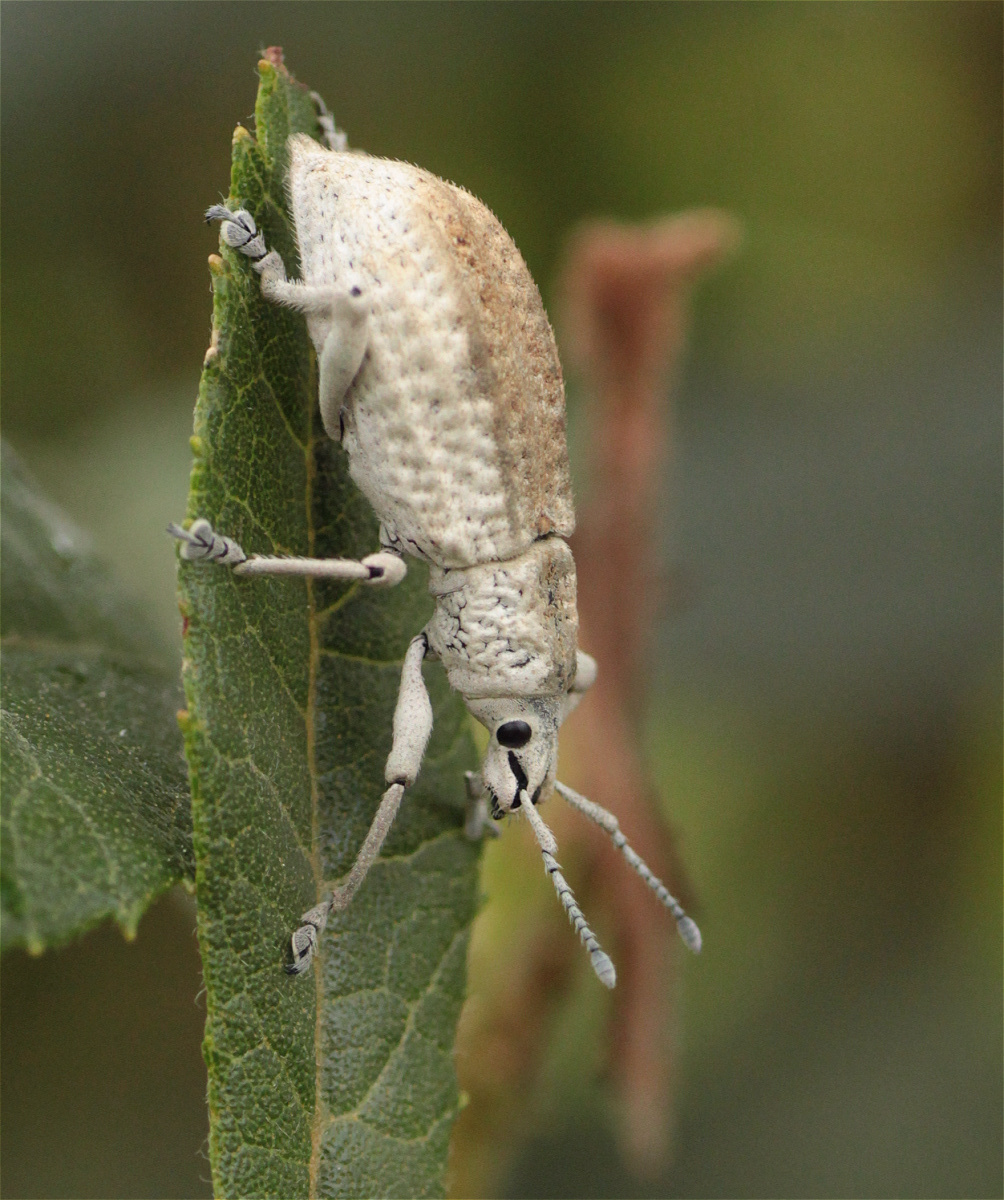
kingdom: Animalia
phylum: Arthropoda
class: Insecta
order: Coleoptera
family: Curculionidae
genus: Compsus
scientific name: Compsus canescens
